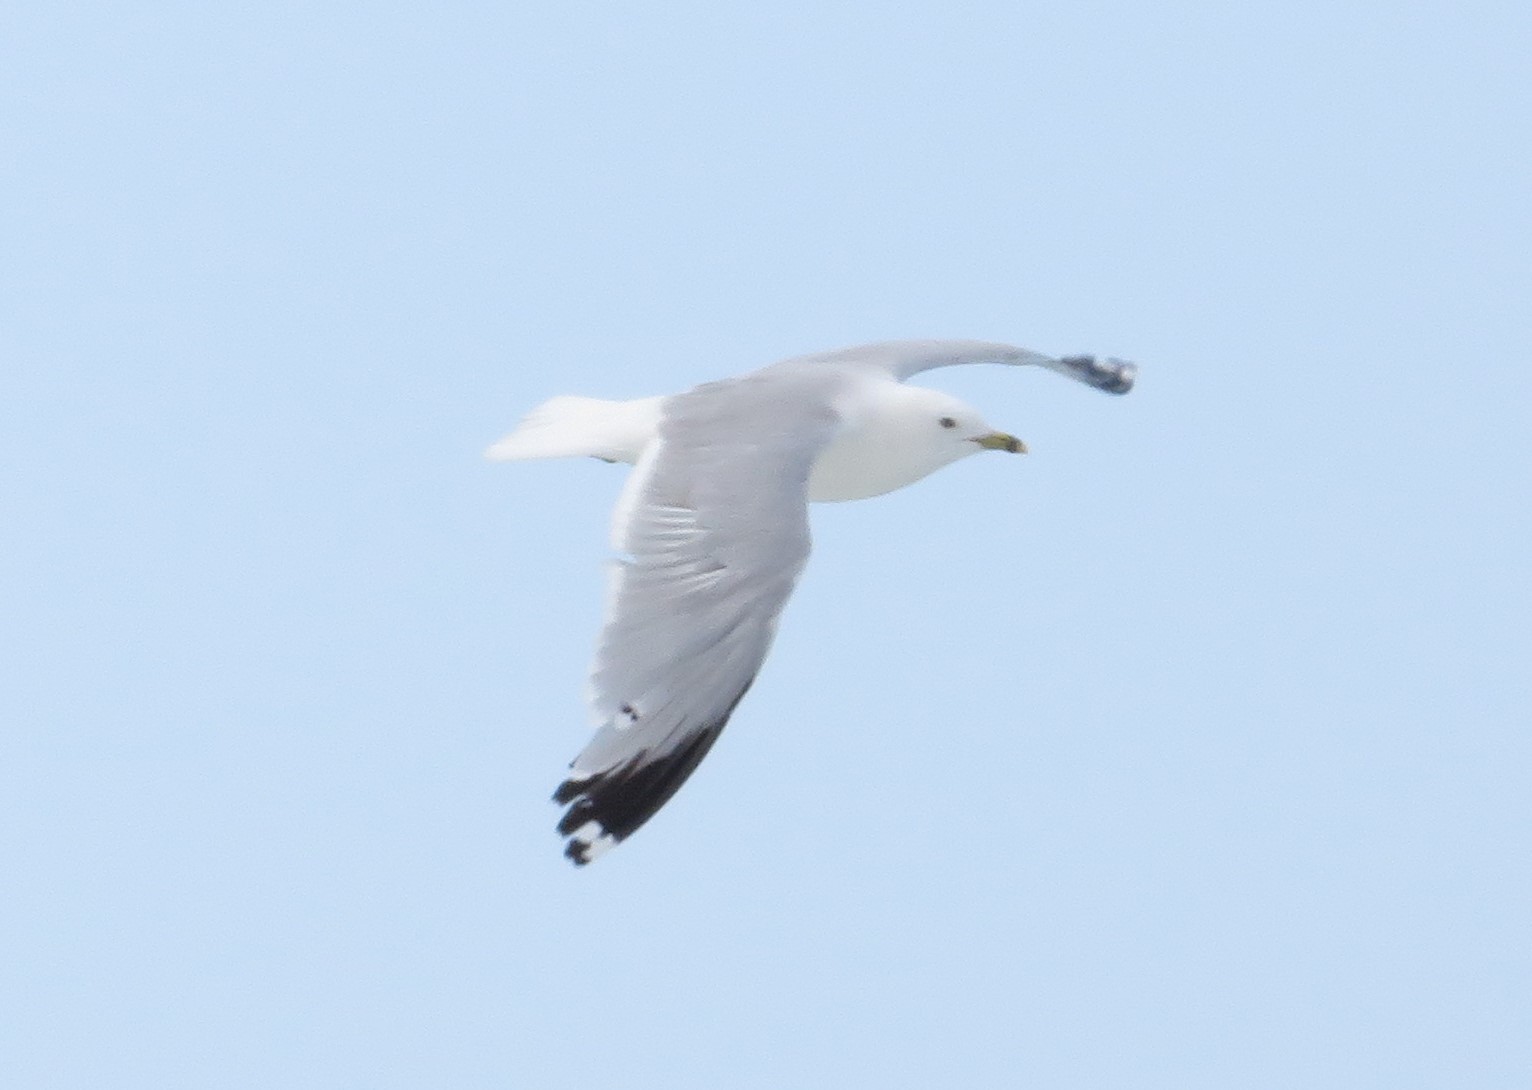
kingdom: Animalia
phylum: Chordata
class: Aves
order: Charadriiformes
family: Laridae
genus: Larus
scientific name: Larus delawarensis
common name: Ring-billed gull
